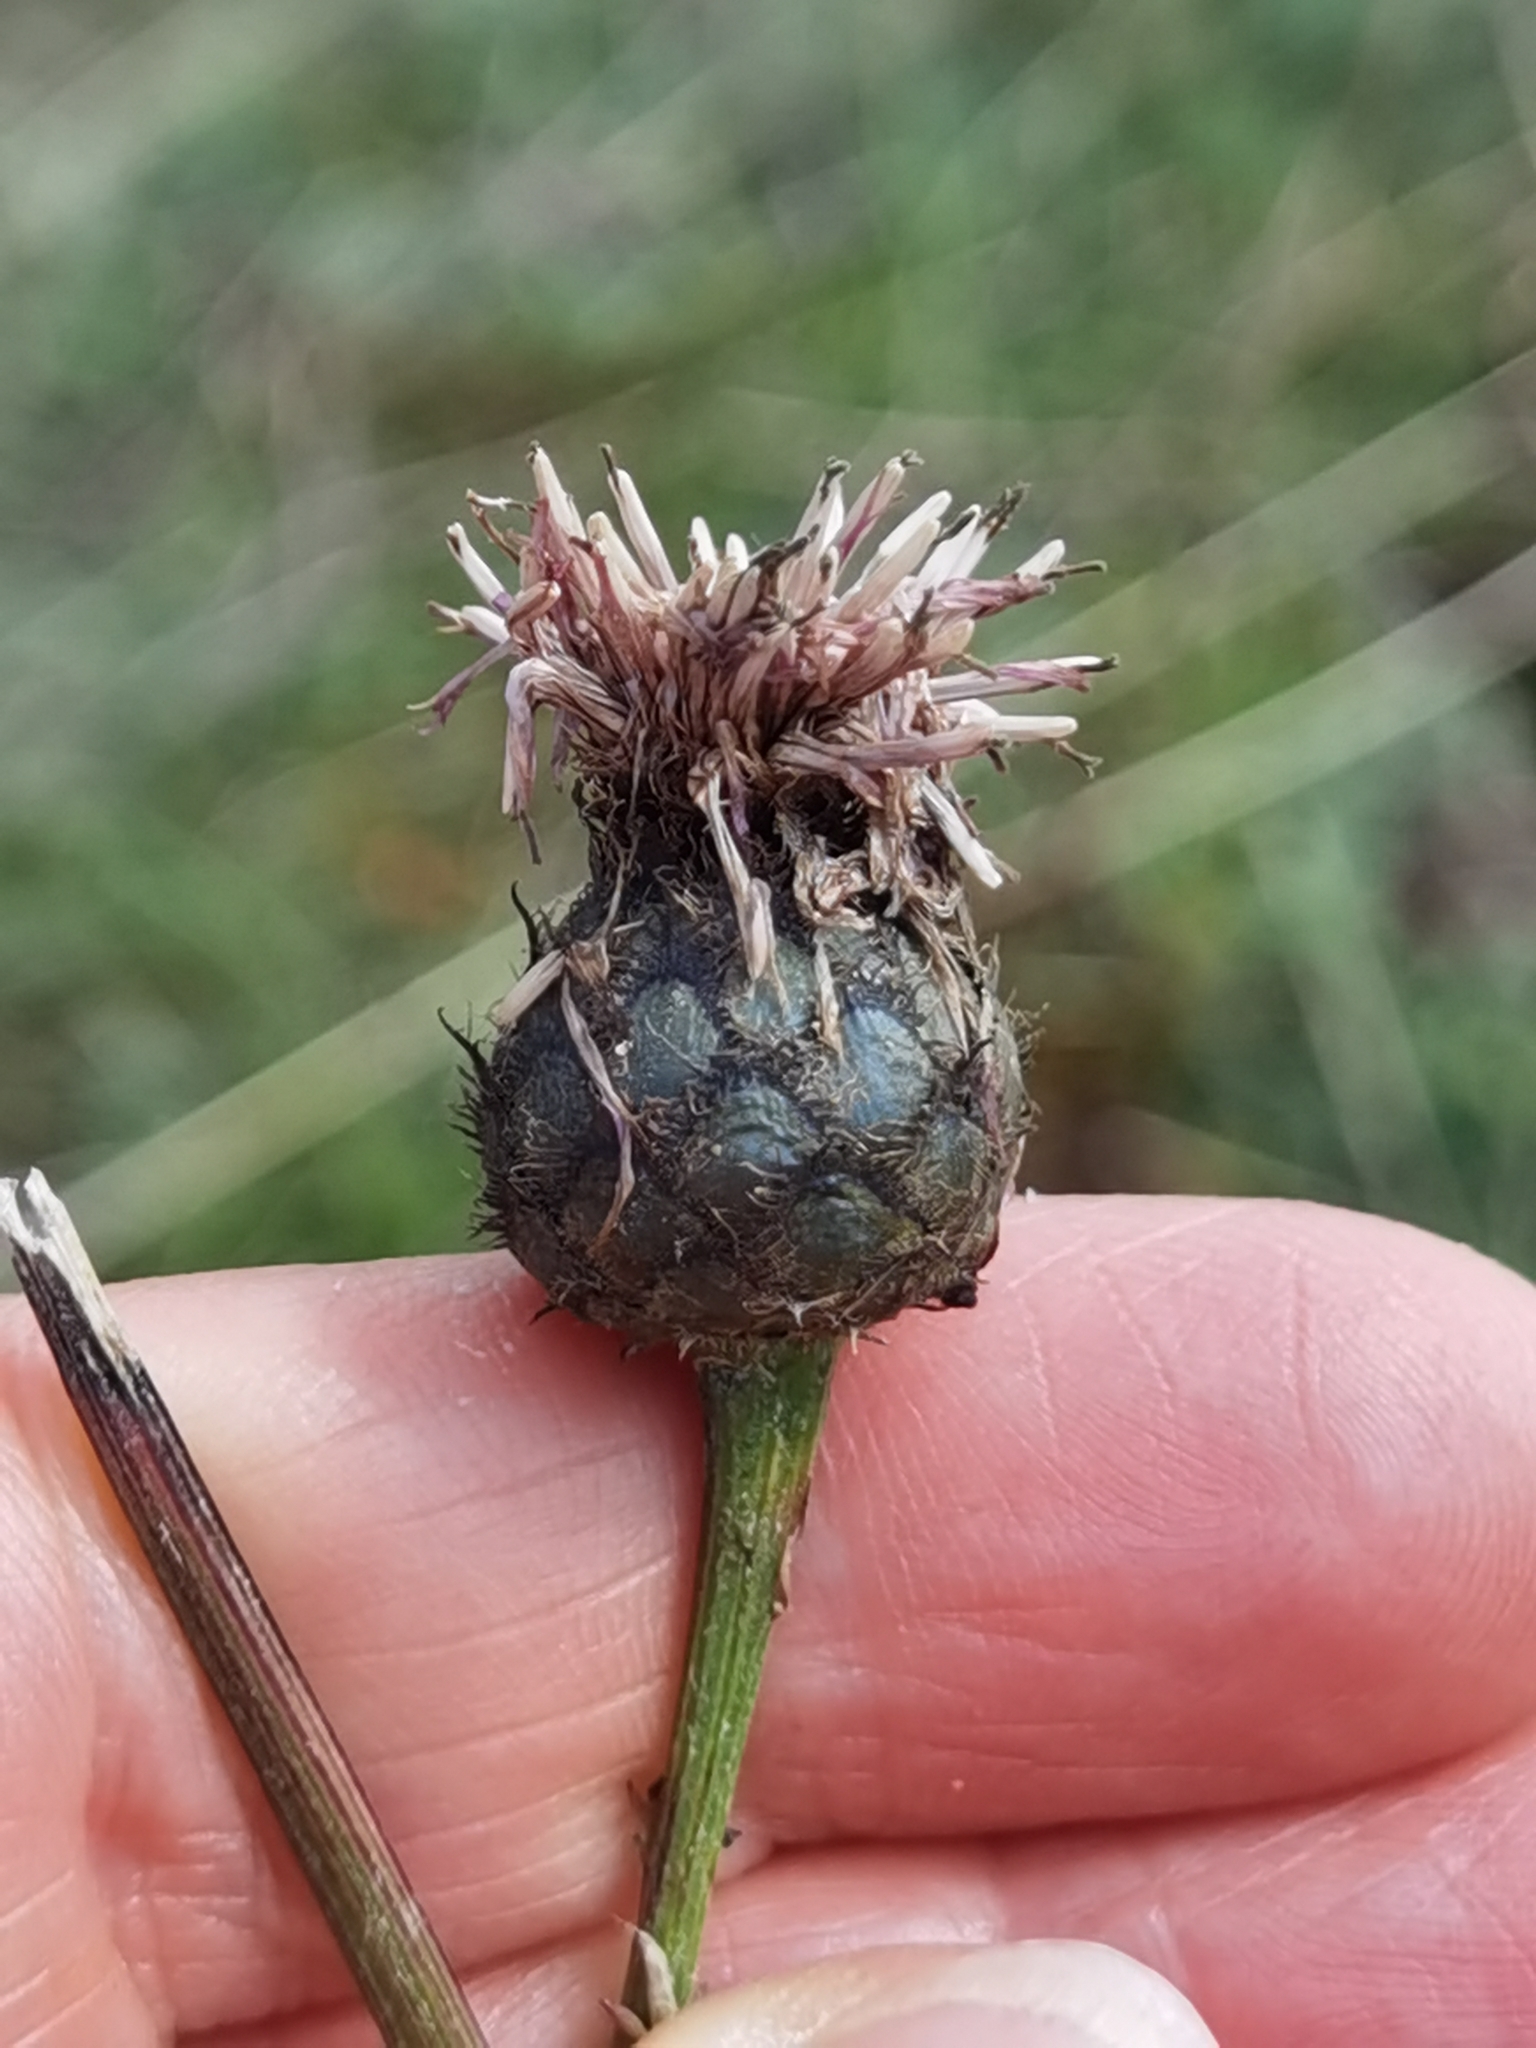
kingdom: Plantae
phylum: Tracheophyta
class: Magnoliopsida
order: Asterales
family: Asteraceae
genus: Centaurea
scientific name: Centaurea scabiosa
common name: Greater knapweed
